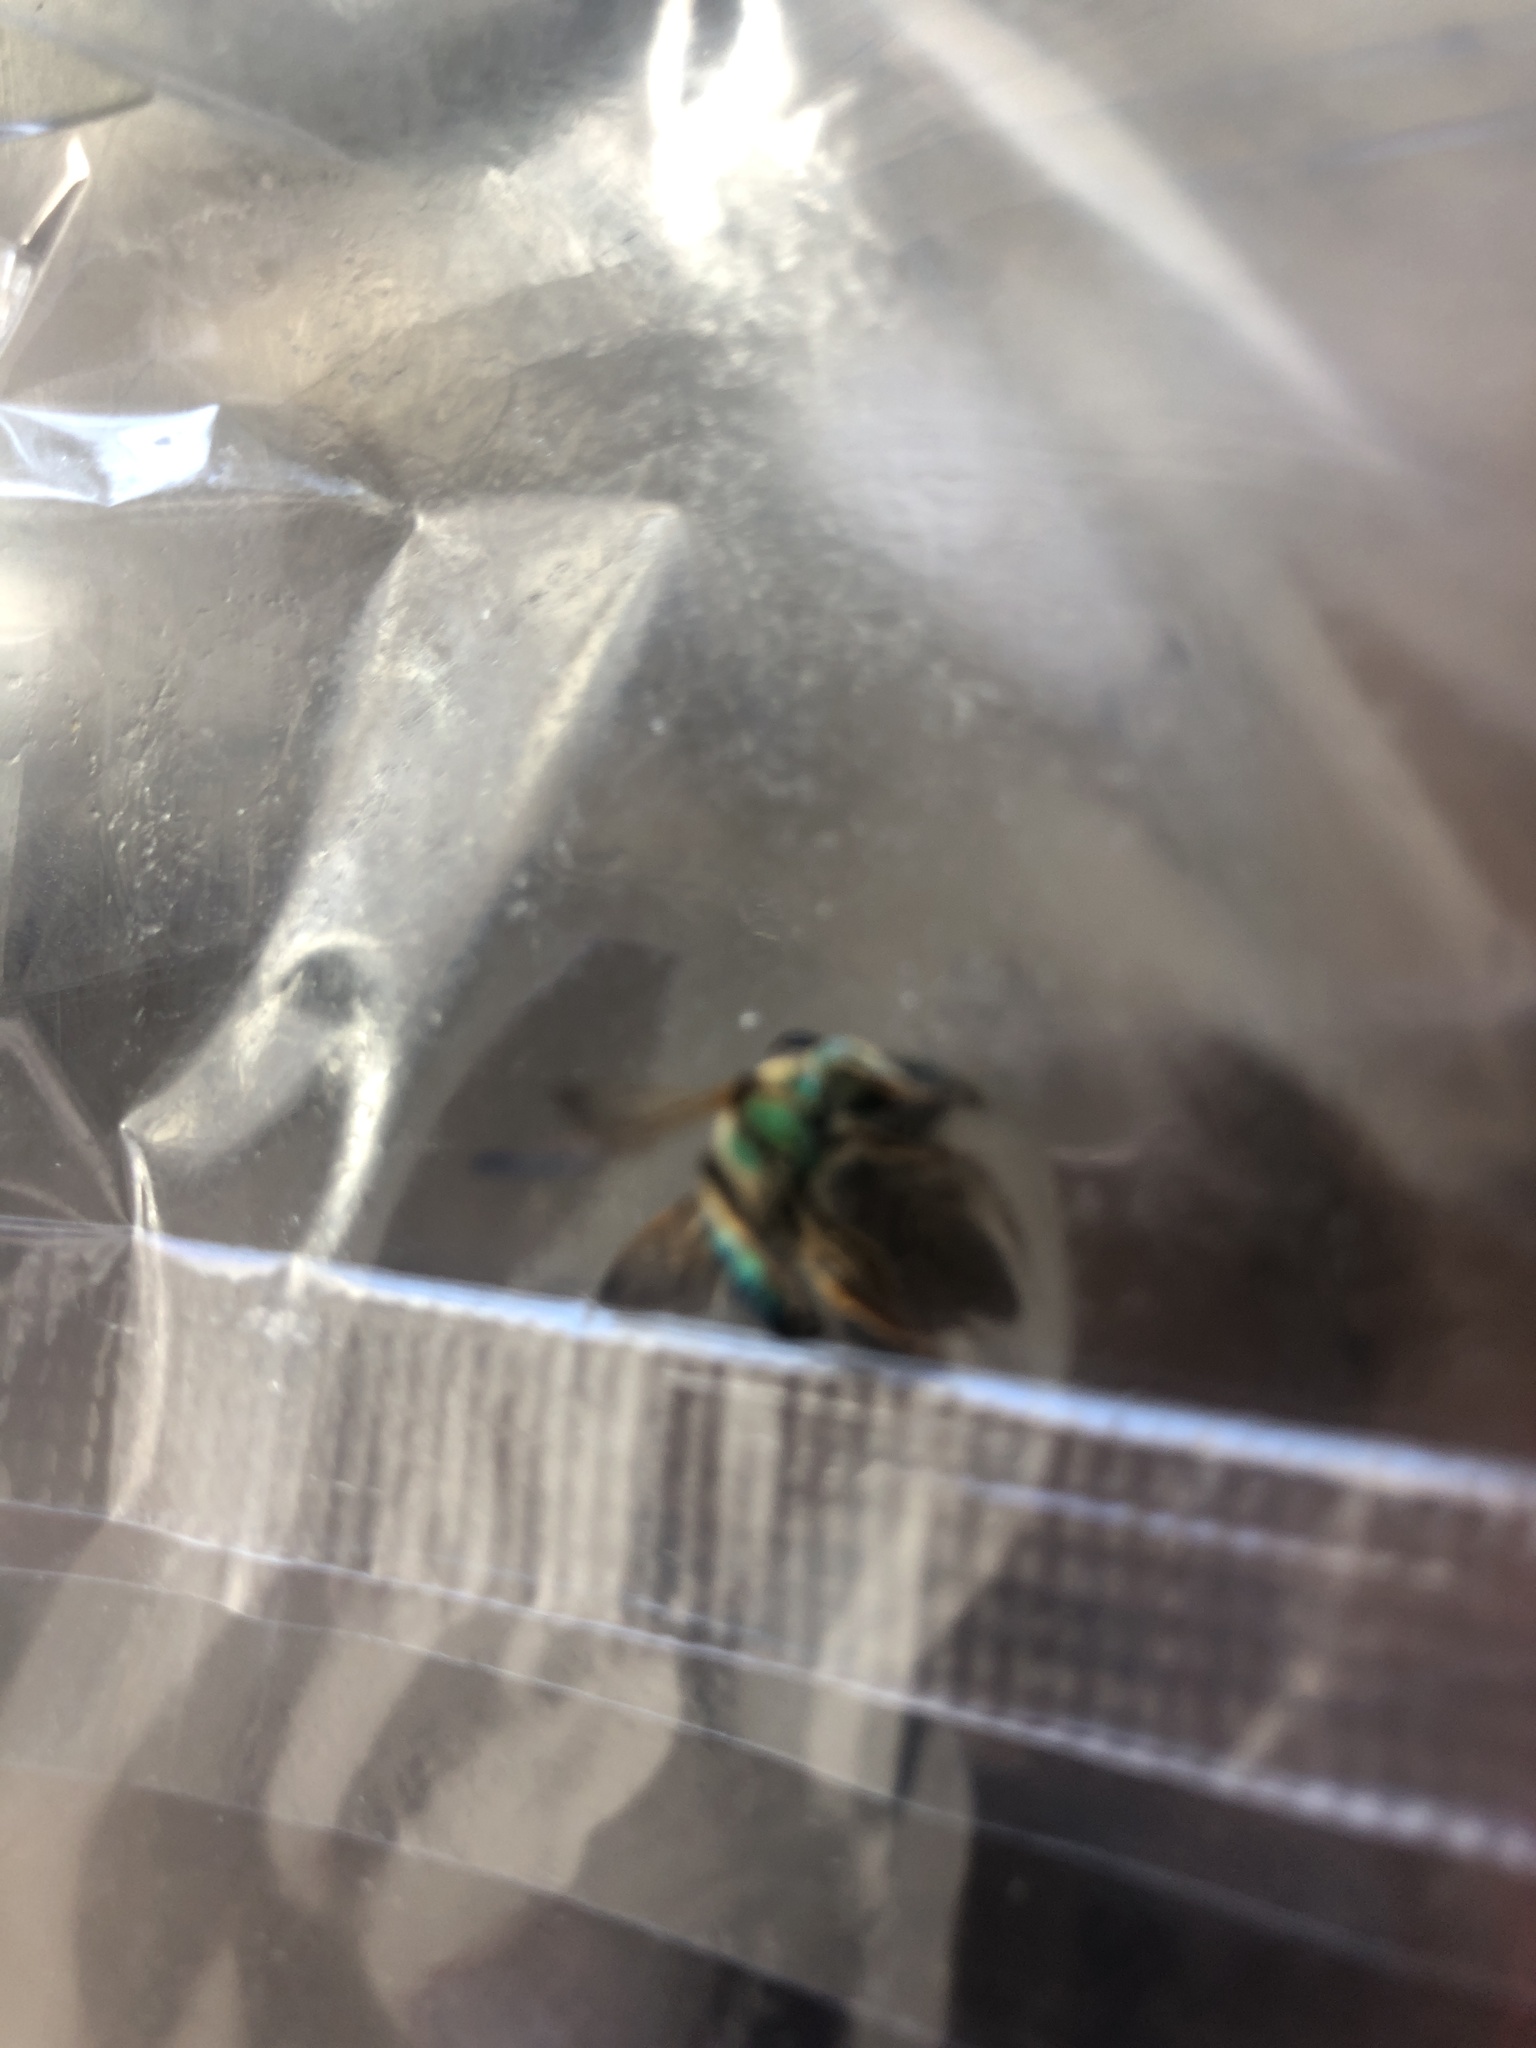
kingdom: Animalia
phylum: Arthropoda
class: Insecta
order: Hymenoptera
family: Halictidae
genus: Agapostemon
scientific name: Agapostemon splendens
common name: Brown-winged striped sweat bee
